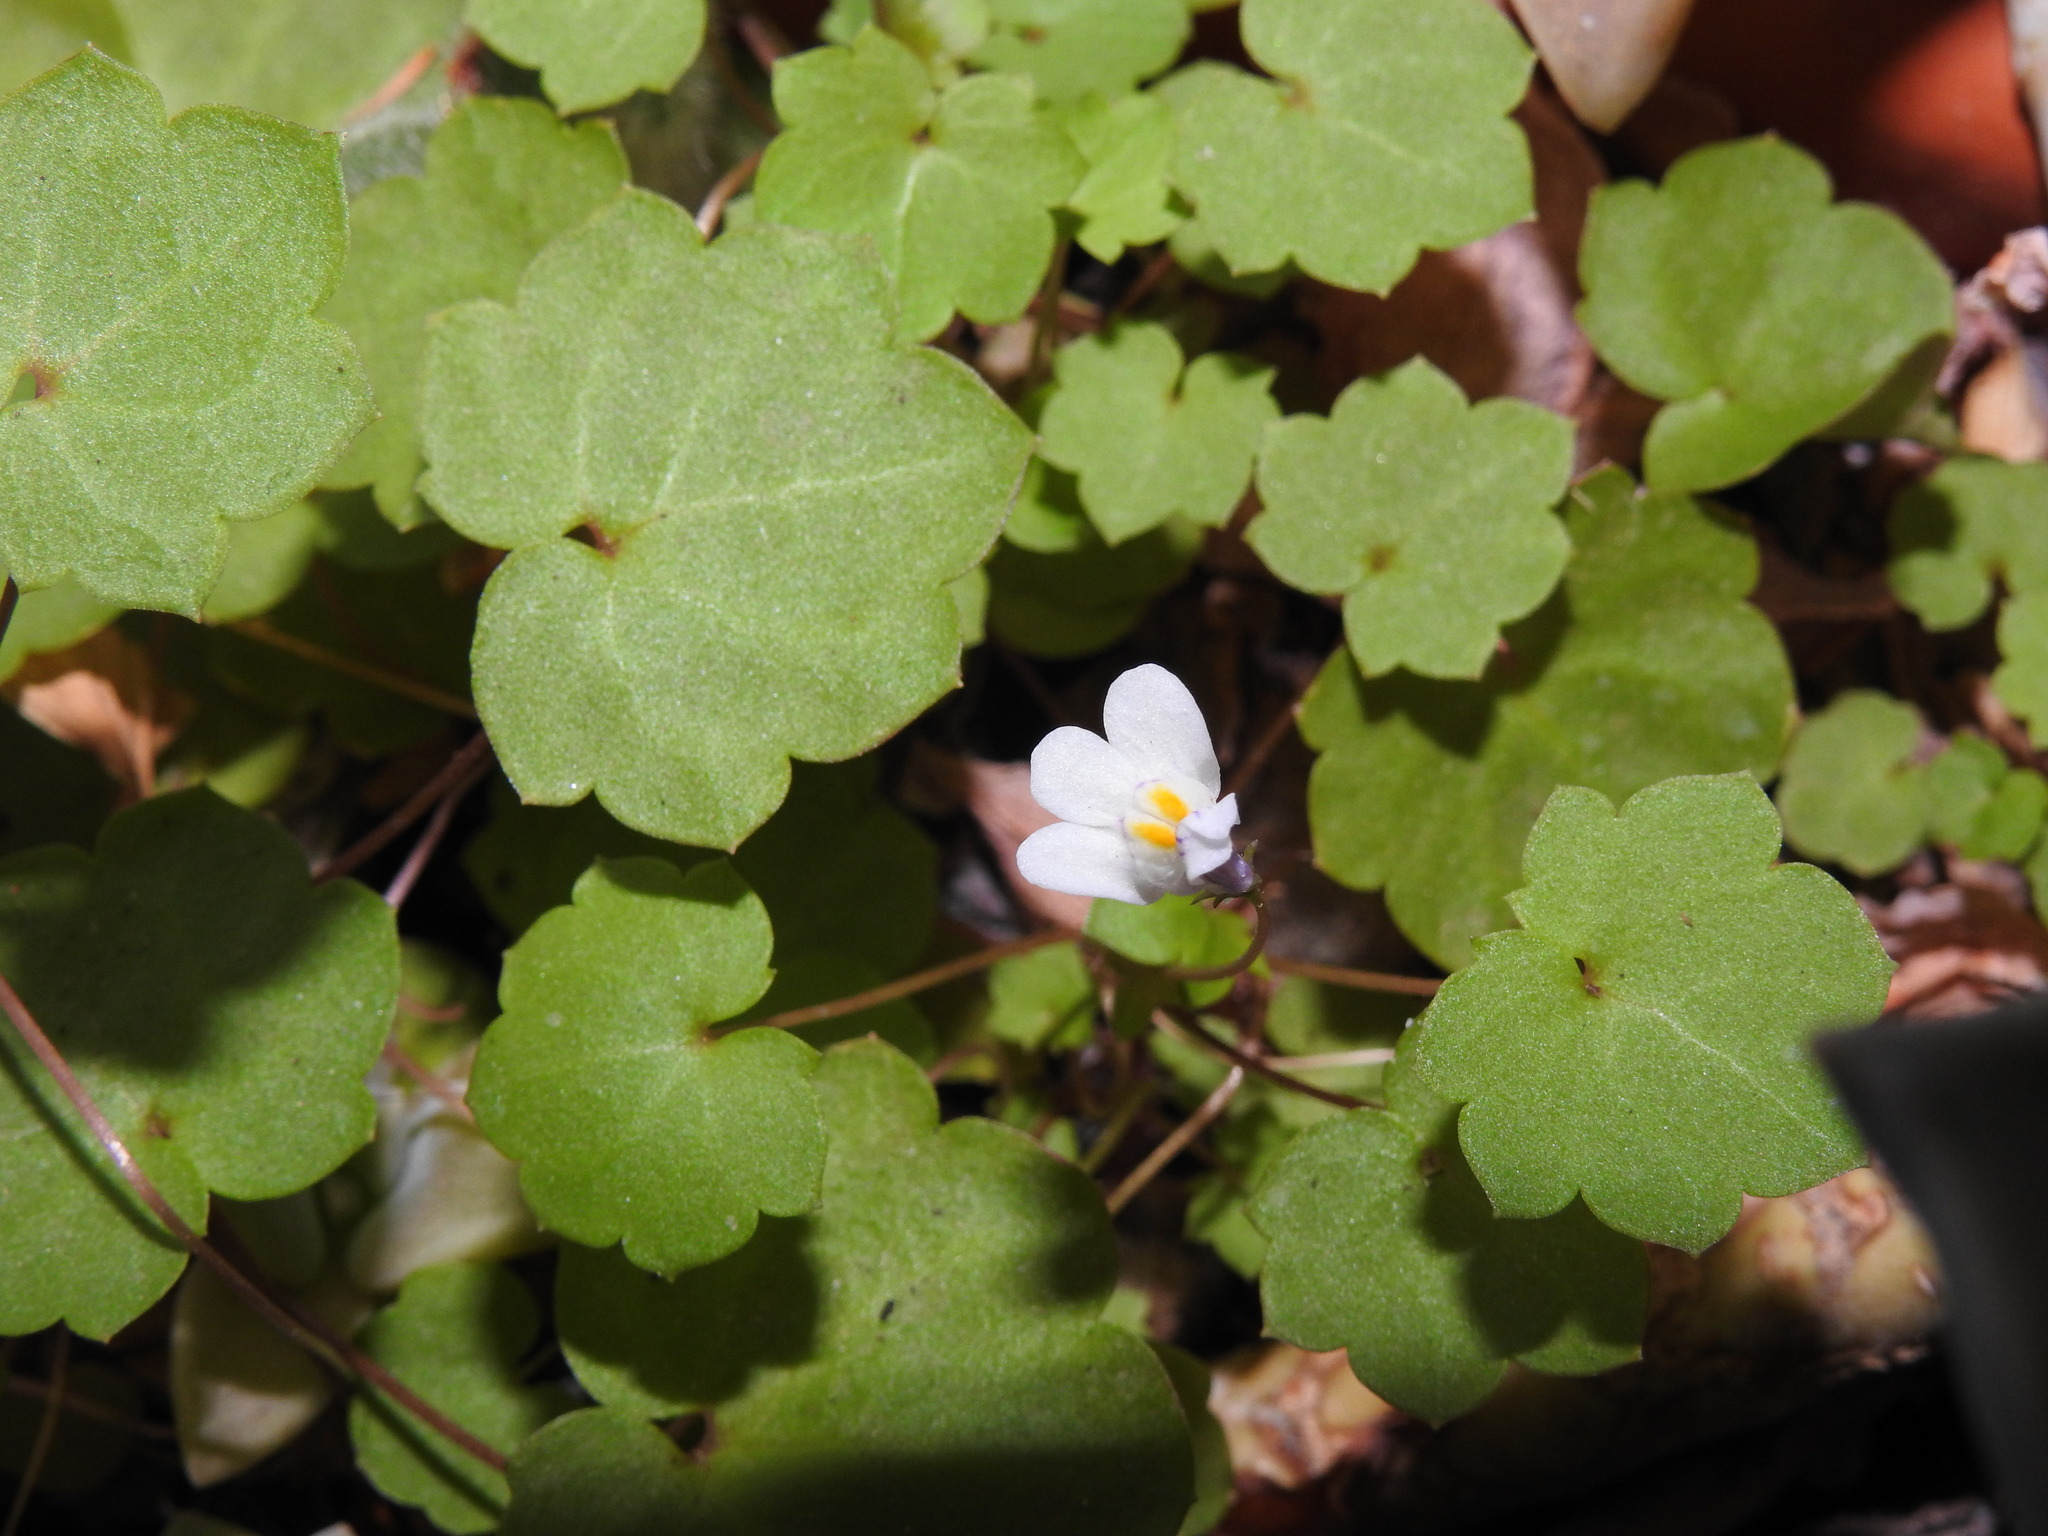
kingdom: Plantae
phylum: Tracheophyta
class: Magnoliopsida
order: Lamiales
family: Plantaginaceae
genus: Cymbalaria
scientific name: Cymbalaria muralis
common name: Ivy-leaved toadflax
